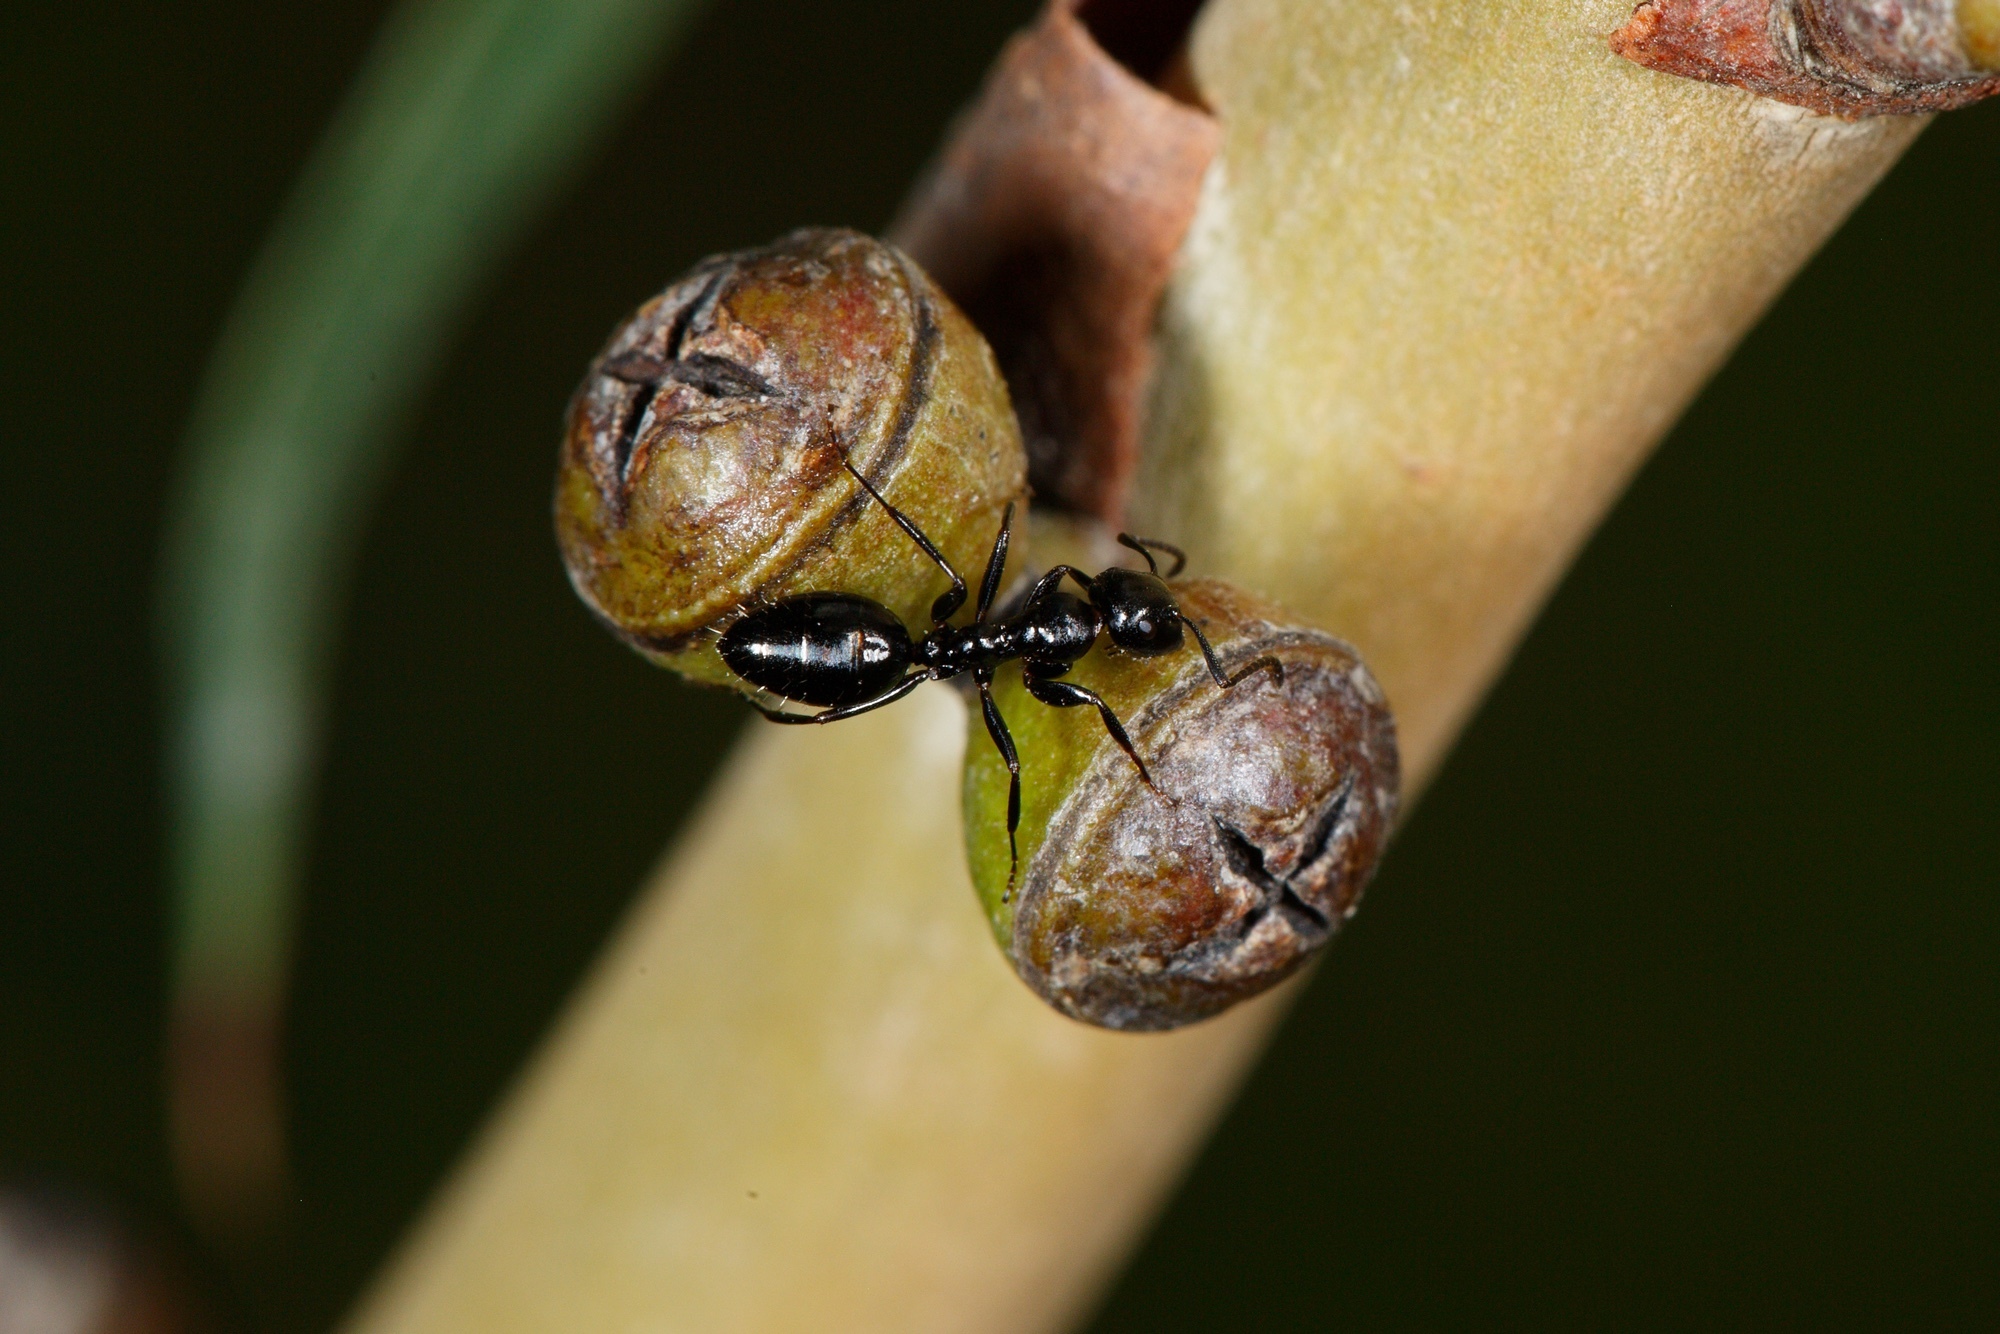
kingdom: Animalia
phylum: Arthropoda
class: Insecta
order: Hymenoptera
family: Formicidae
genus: Colobopsis
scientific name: Colobopsis gasseri
